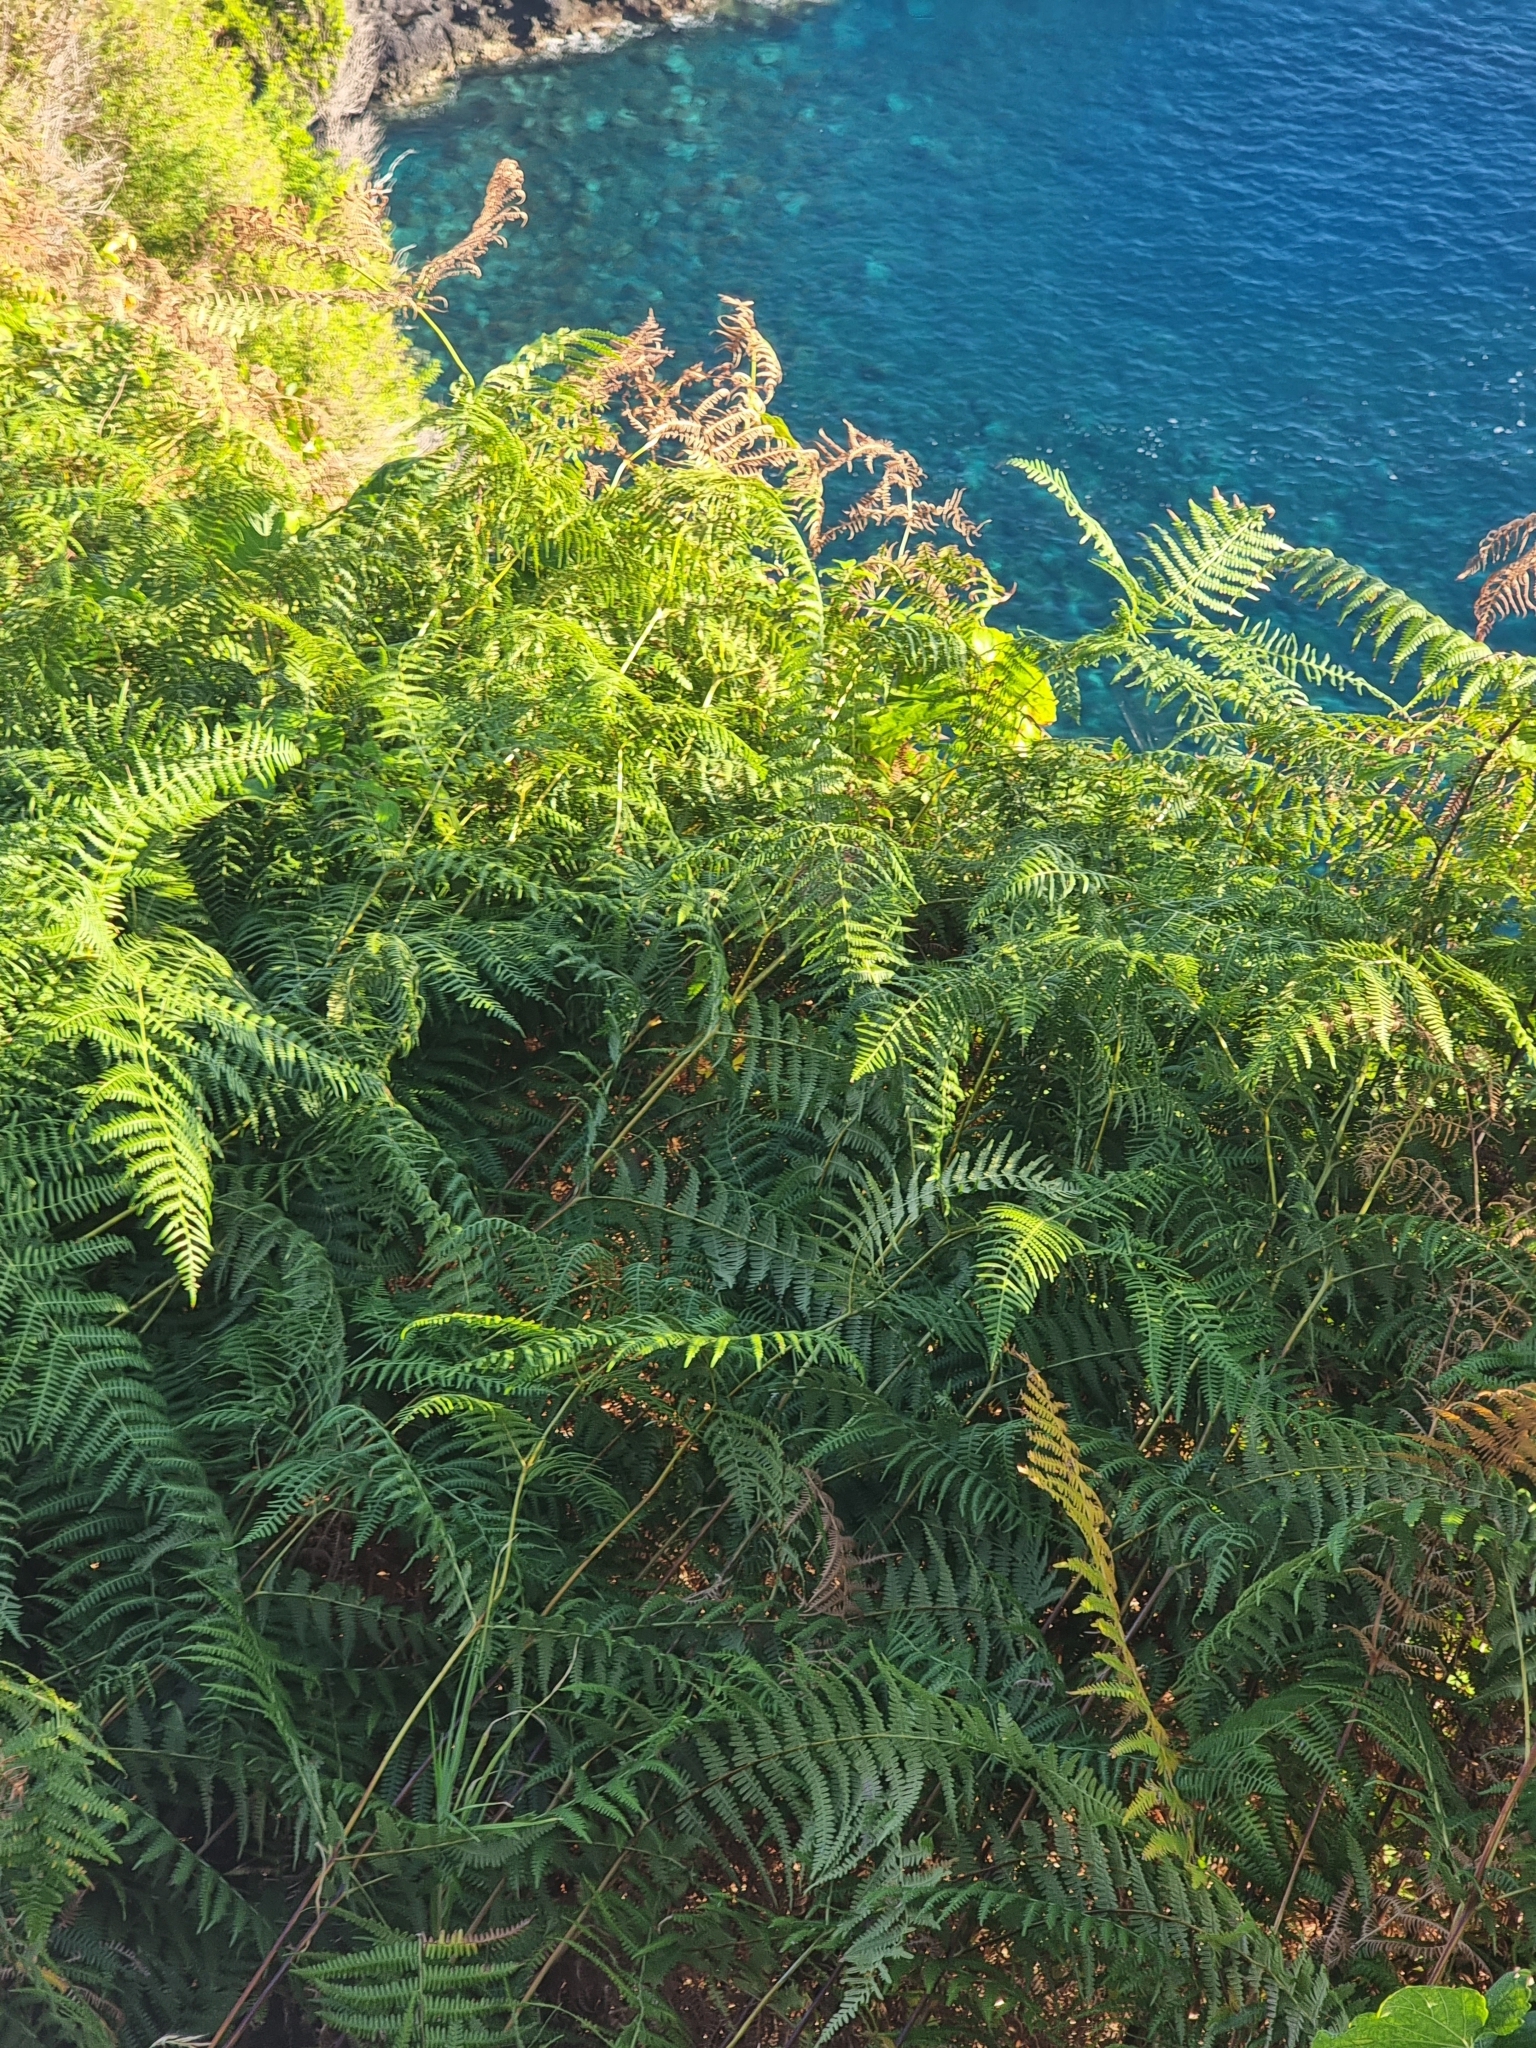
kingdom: Plantae
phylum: Tracheophyta
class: Polypodiopsida
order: Polypodiales
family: Dennstaedtiaceae
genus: Pteridium
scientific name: Pteridium aquilinum
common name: Bracken
